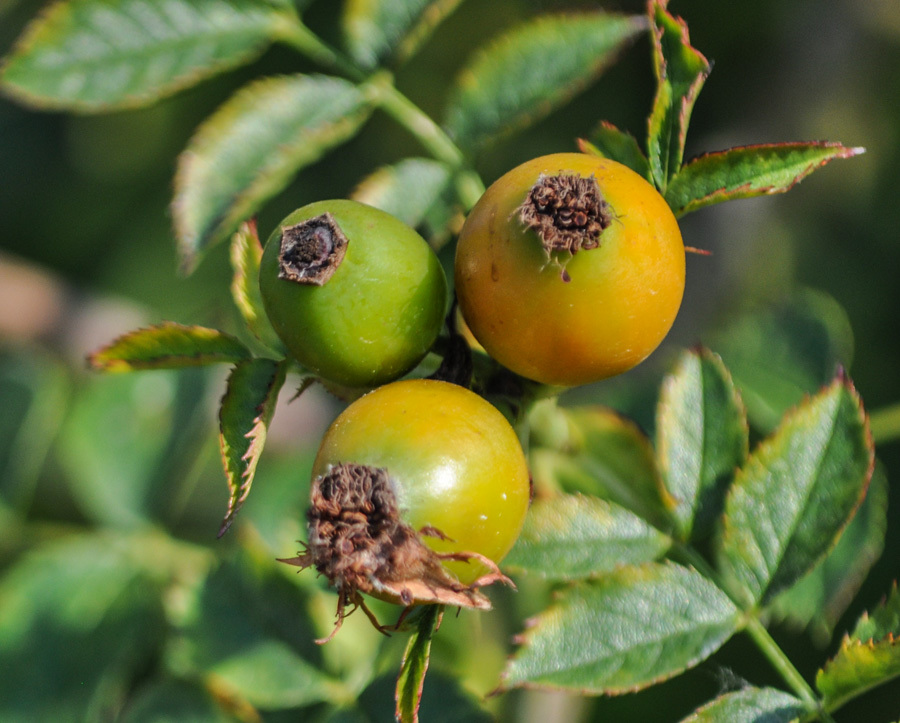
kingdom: Plantae
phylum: Tracheophyta
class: Magnoliopsida
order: Rosales
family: Rosaceae
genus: Rosa
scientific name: Rosa canina
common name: Dog rose
